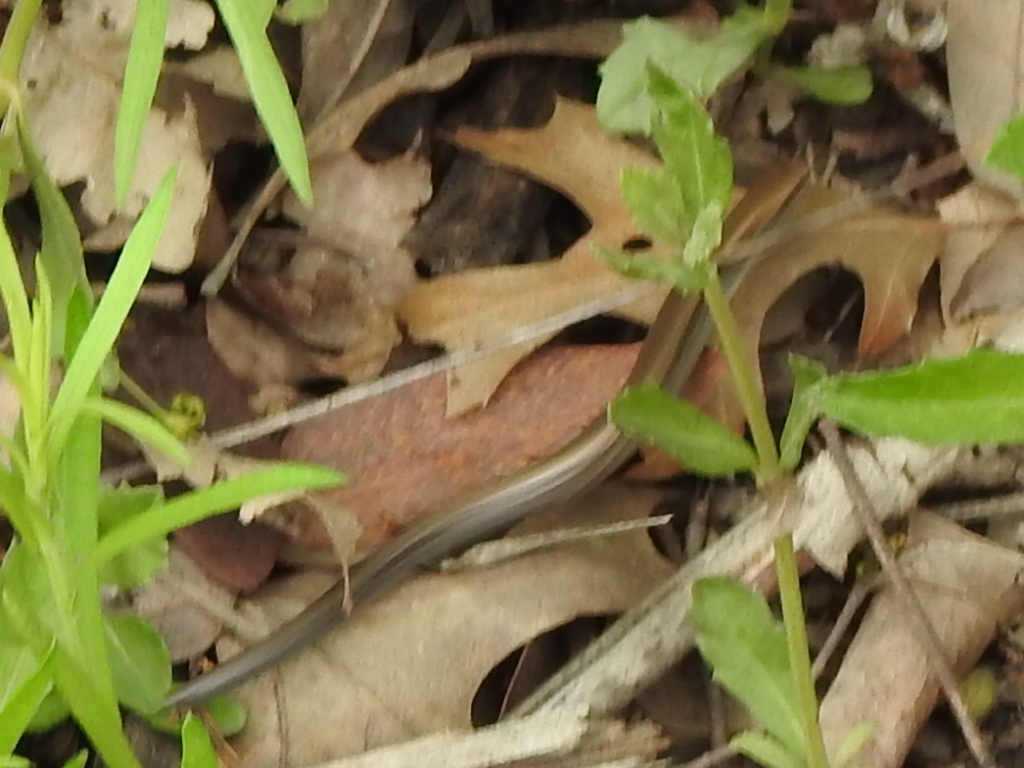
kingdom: Animalia
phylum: Chordata
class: Squamata
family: Scincidae
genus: Scincella
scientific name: Scincella lateralis
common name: Ground skink
